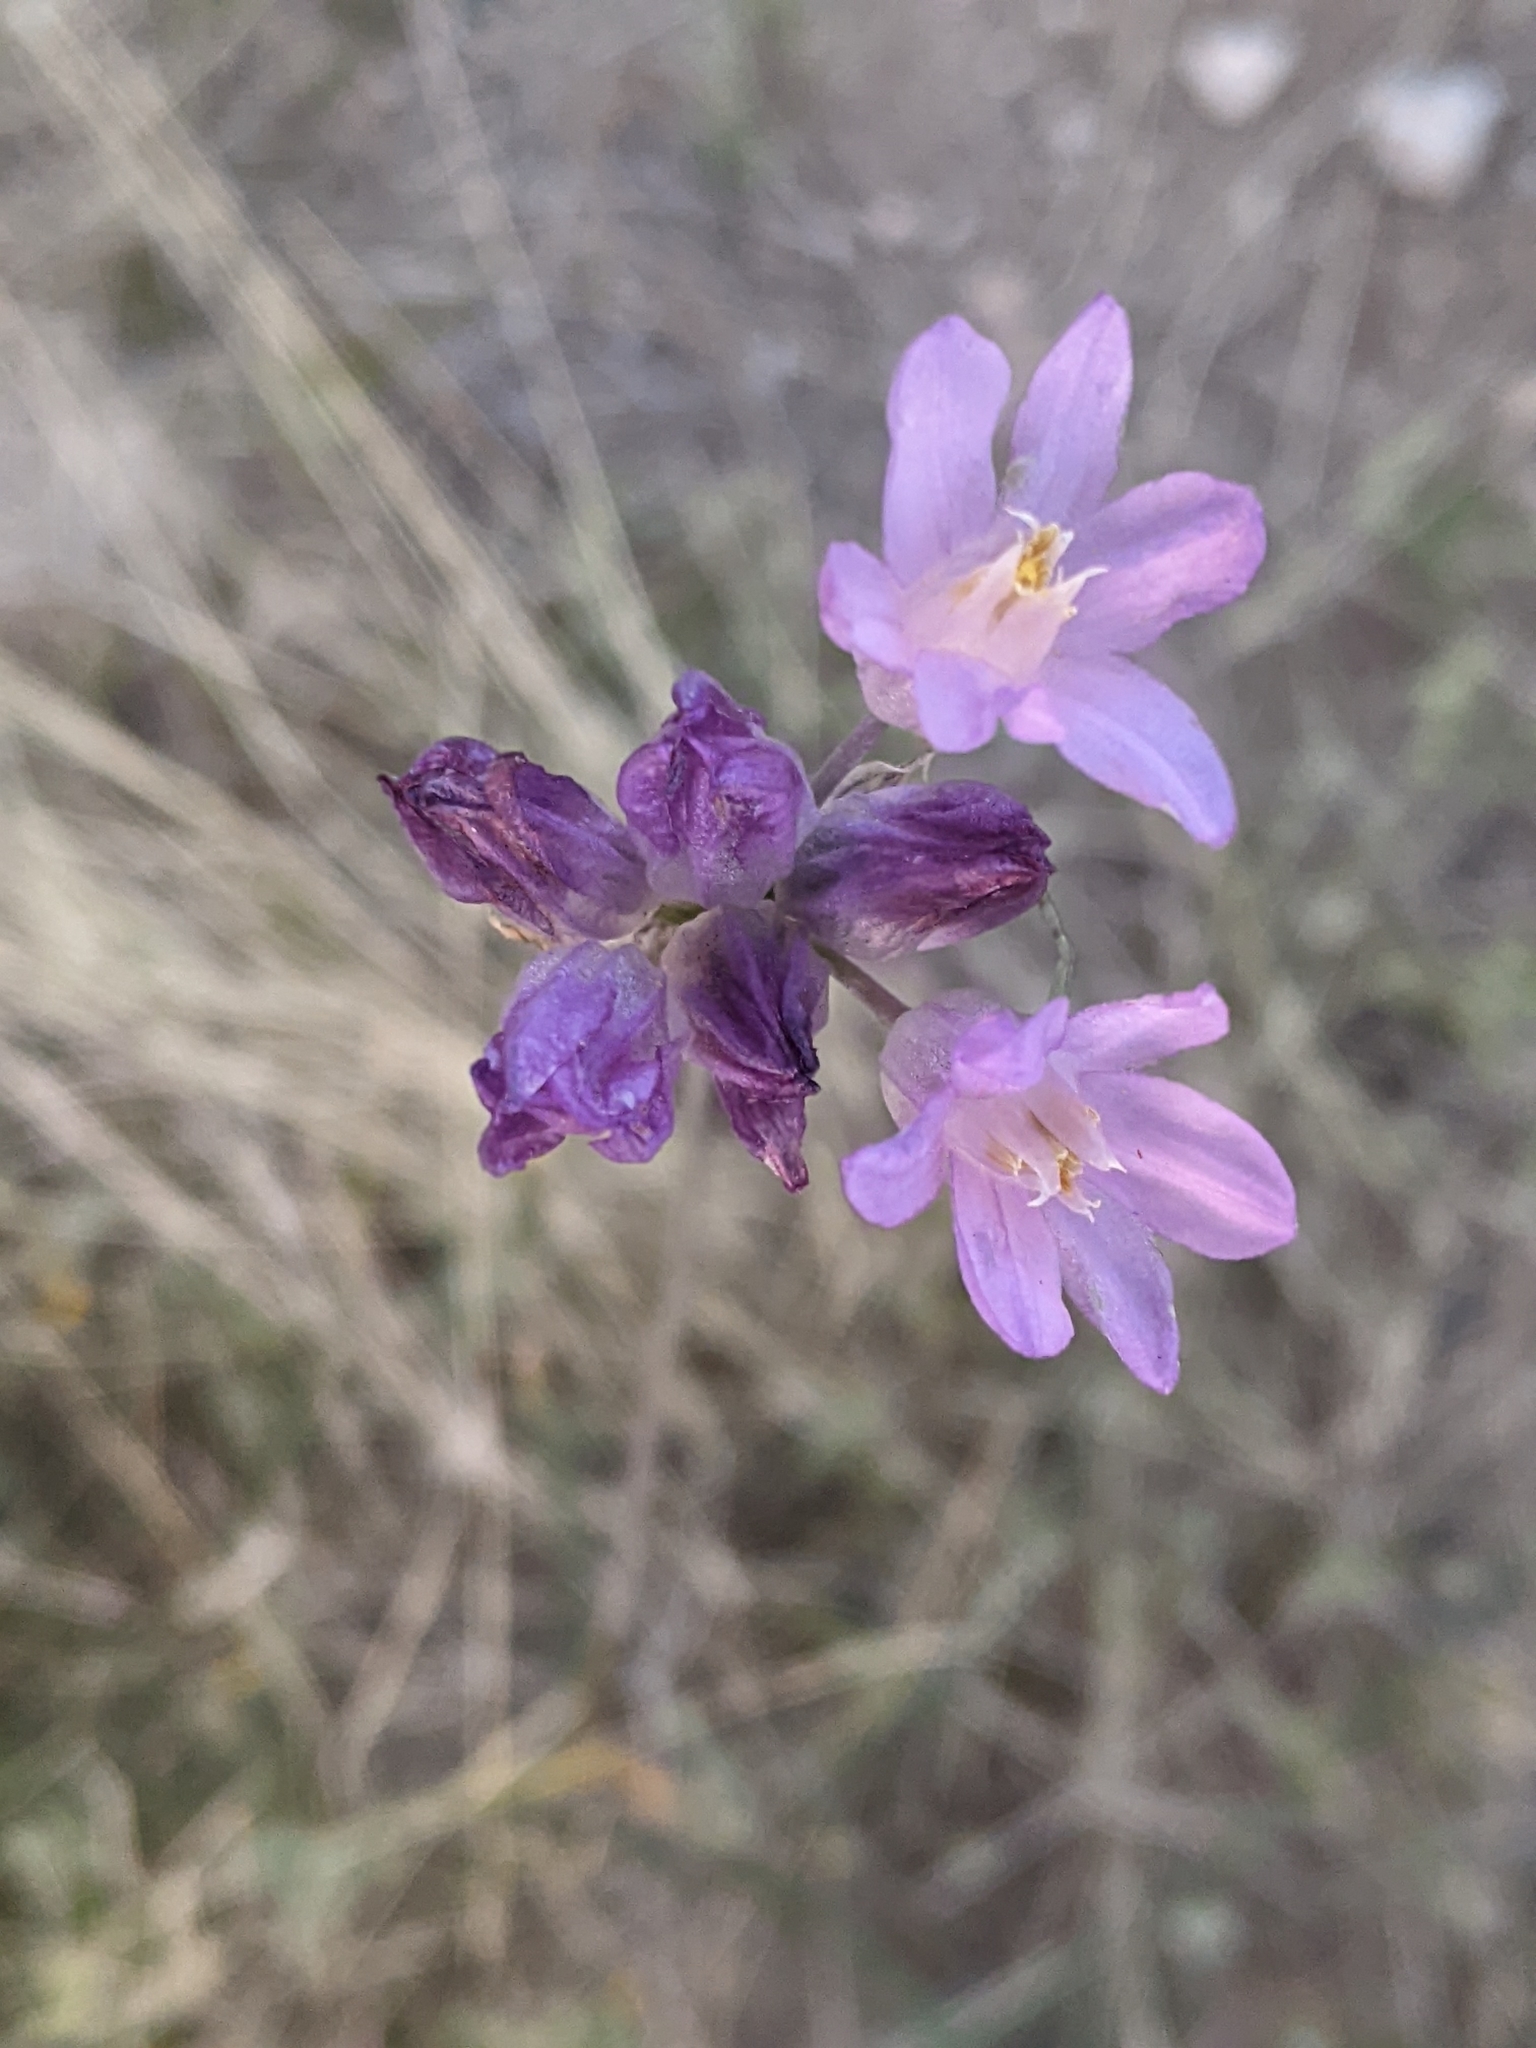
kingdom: Plantae
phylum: Tracheophyta
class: Liliopsida
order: Asparagales
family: Asparagaceae
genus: Dipterostemon
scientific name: Dipterostemon capitatus
